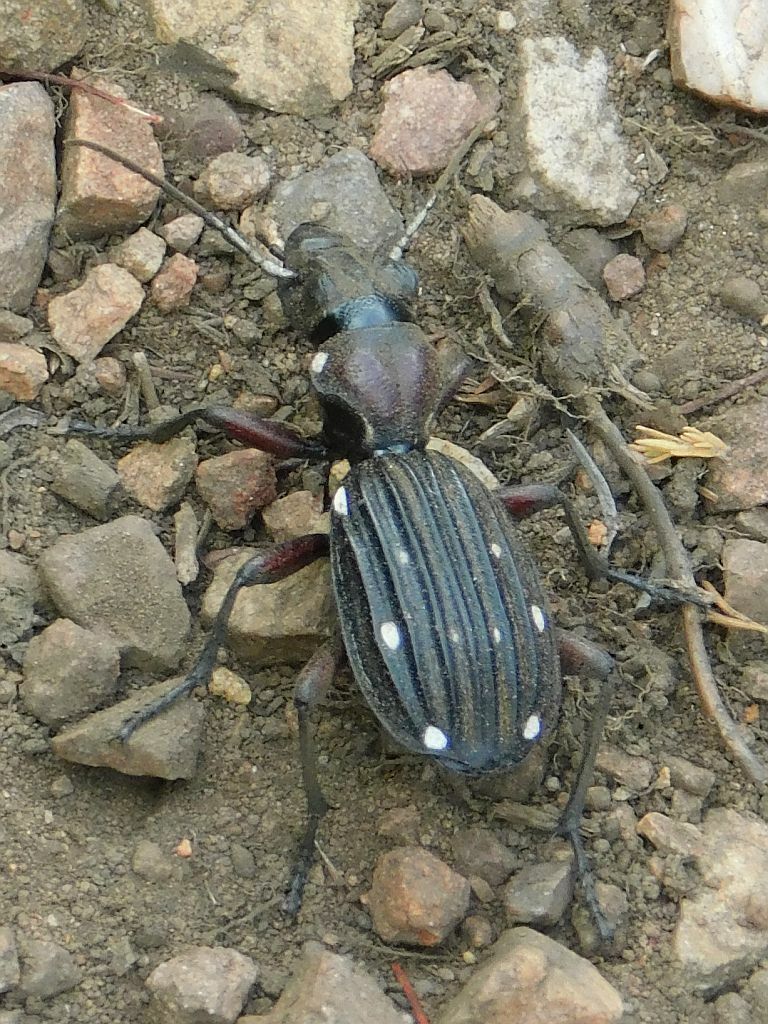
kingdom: Animalia
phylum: Arthropoda
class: Insecta
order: Coleoptera
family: Carabidae
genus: Anthia
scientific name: Anthia decemguttata
